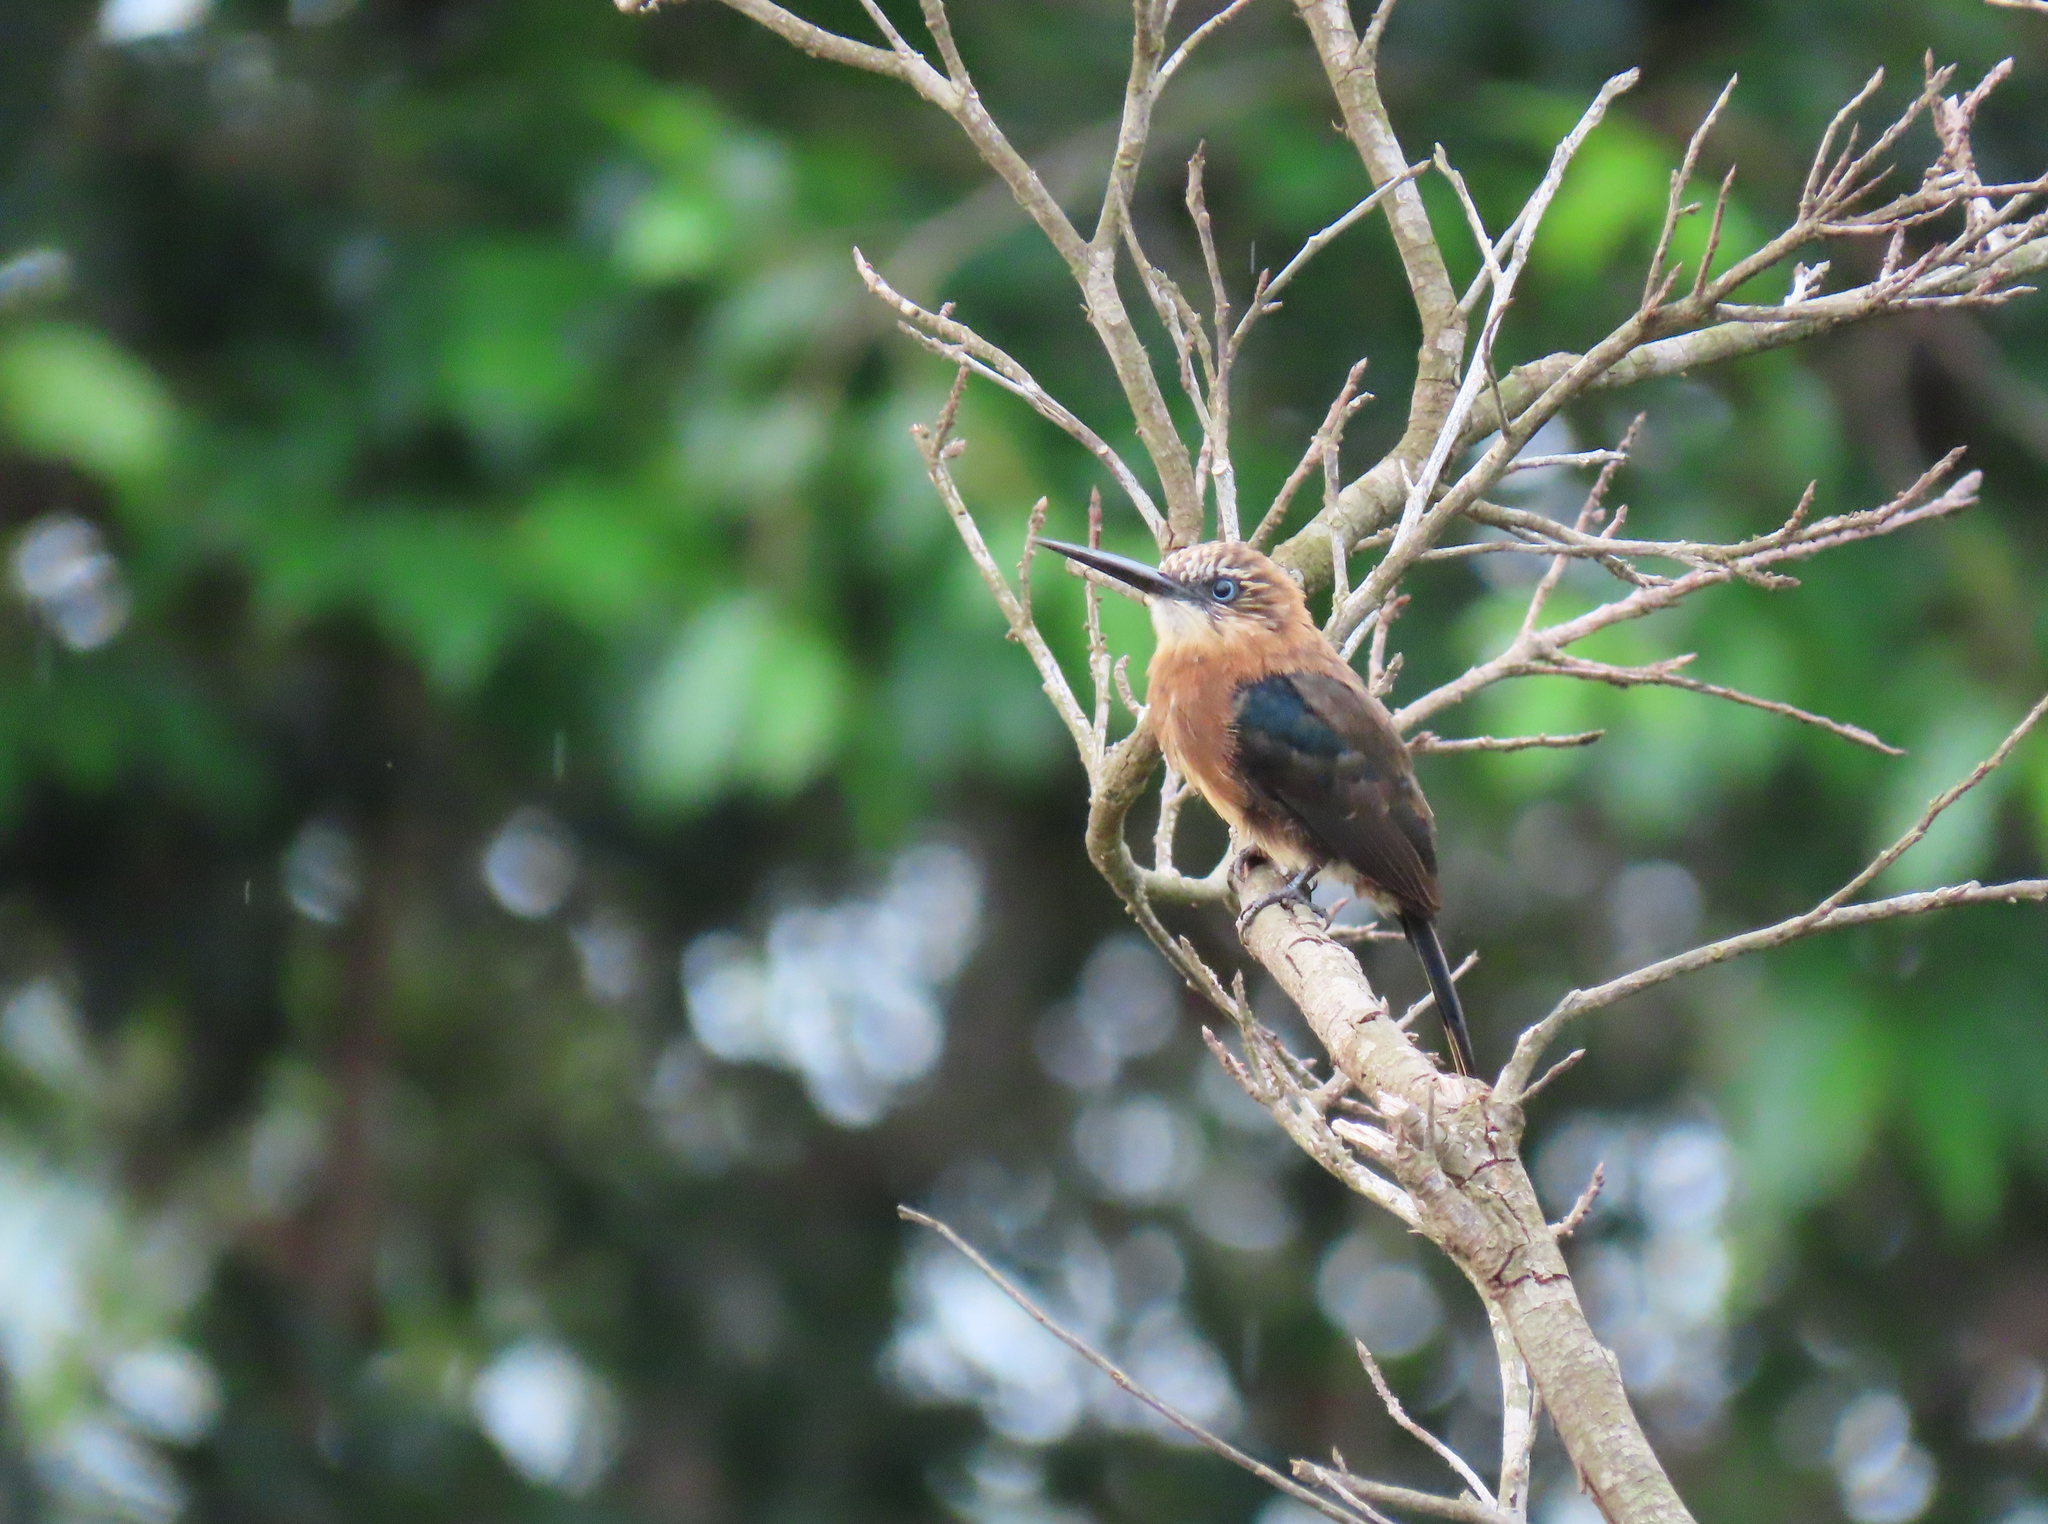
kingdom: Animalia
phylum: Chordata
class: Aves
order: Piciformes
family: Galbulidae
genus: Brachygalba
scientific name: Brachygalba lugubris
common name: Brown jacamar
